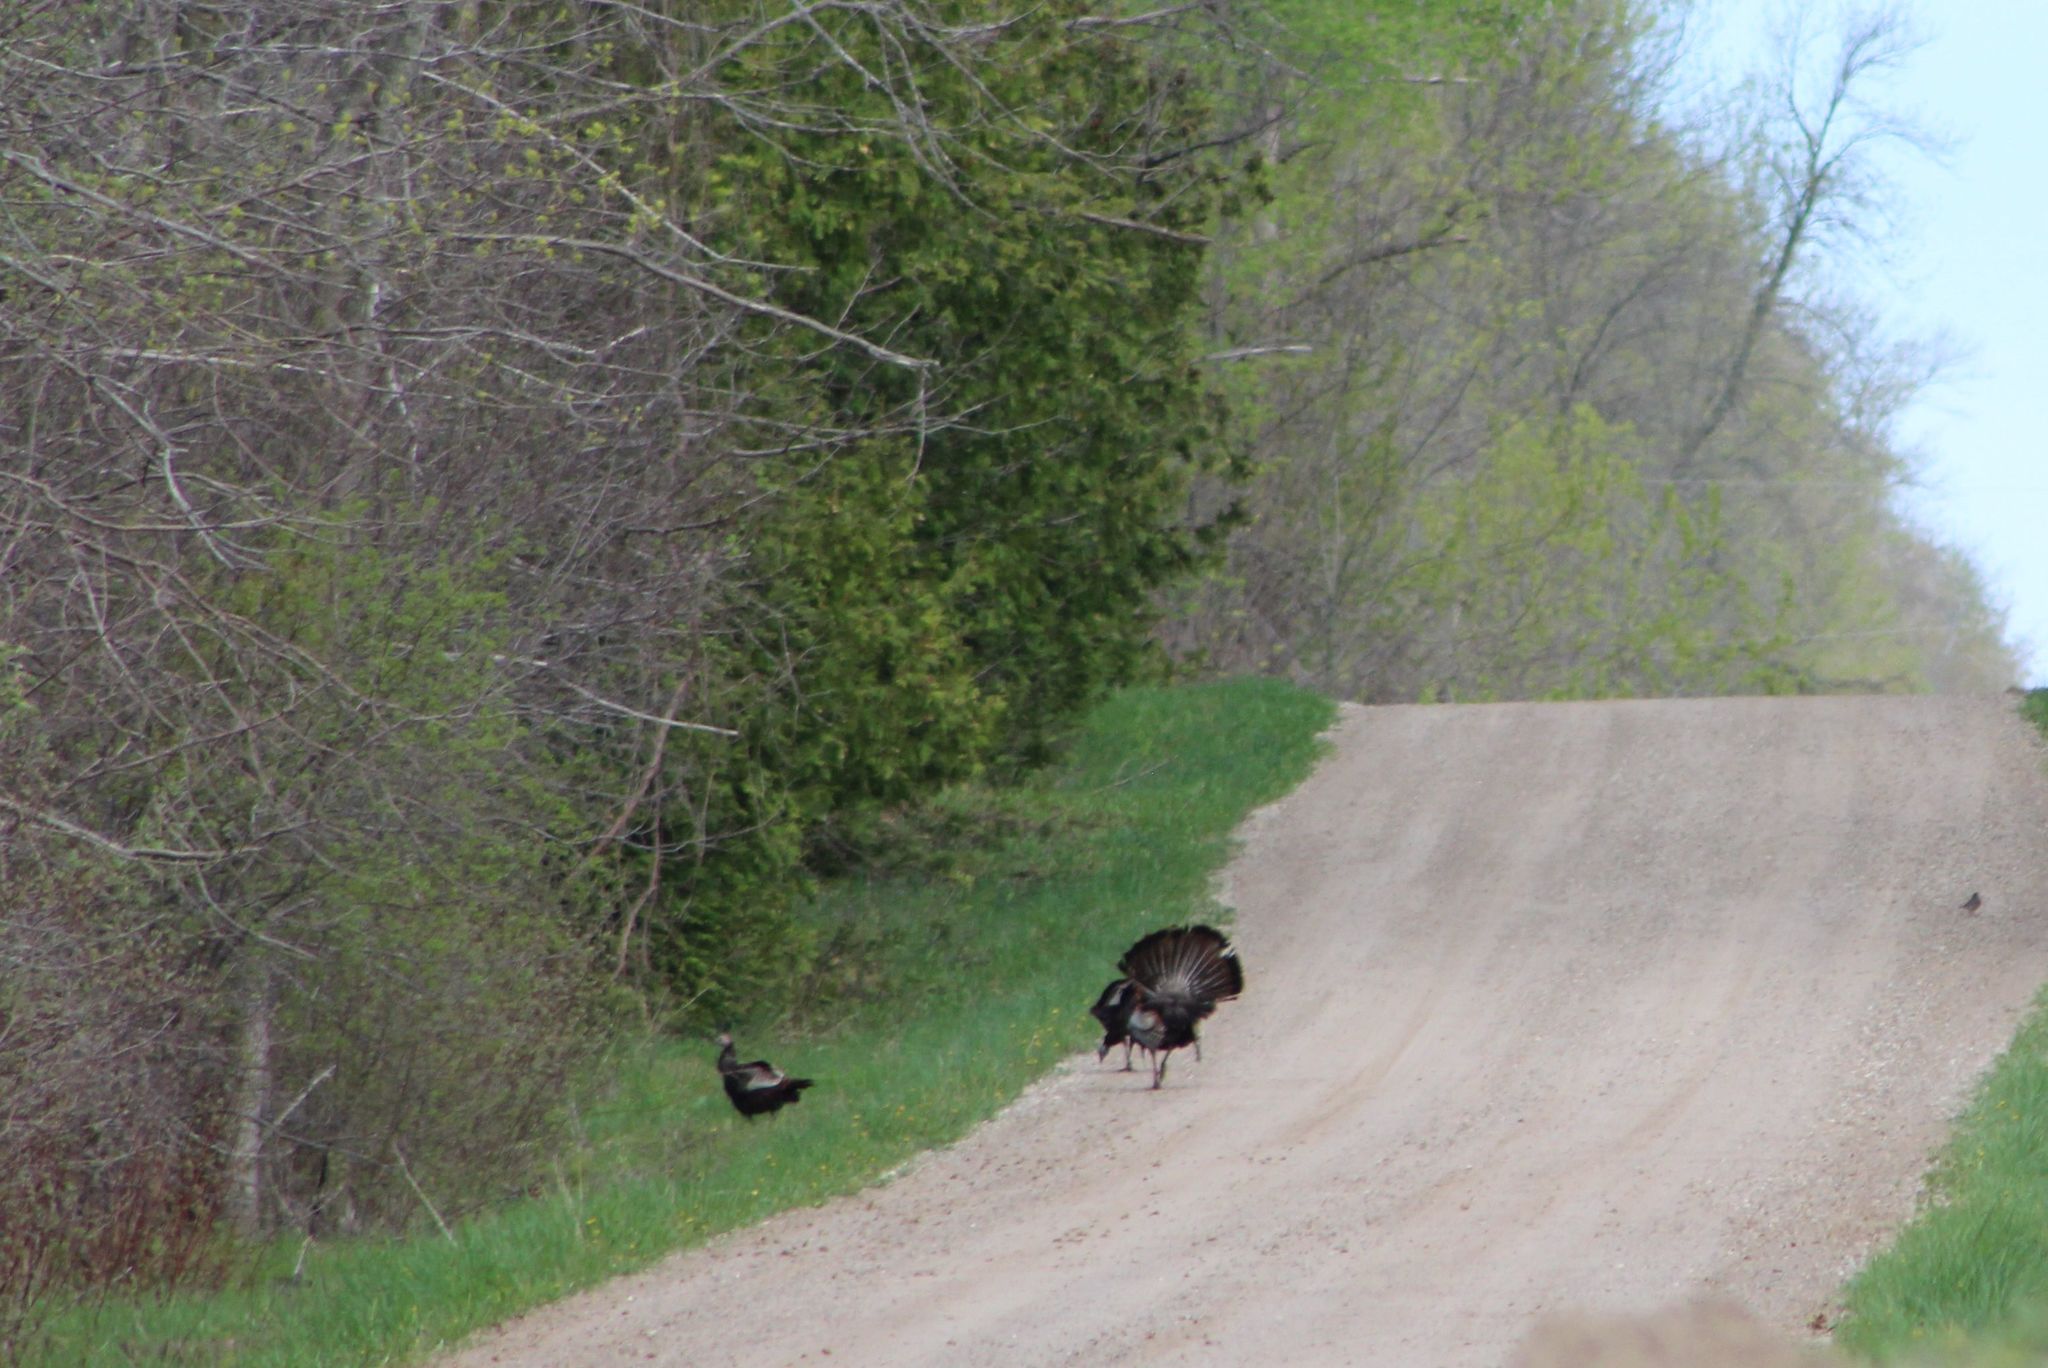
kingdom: Animalia
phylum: Chordata
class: Aves
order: Galliformes
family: Phasianidae
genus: Meleagris
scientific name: Meleagris gallopavo
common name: Wild turkey
